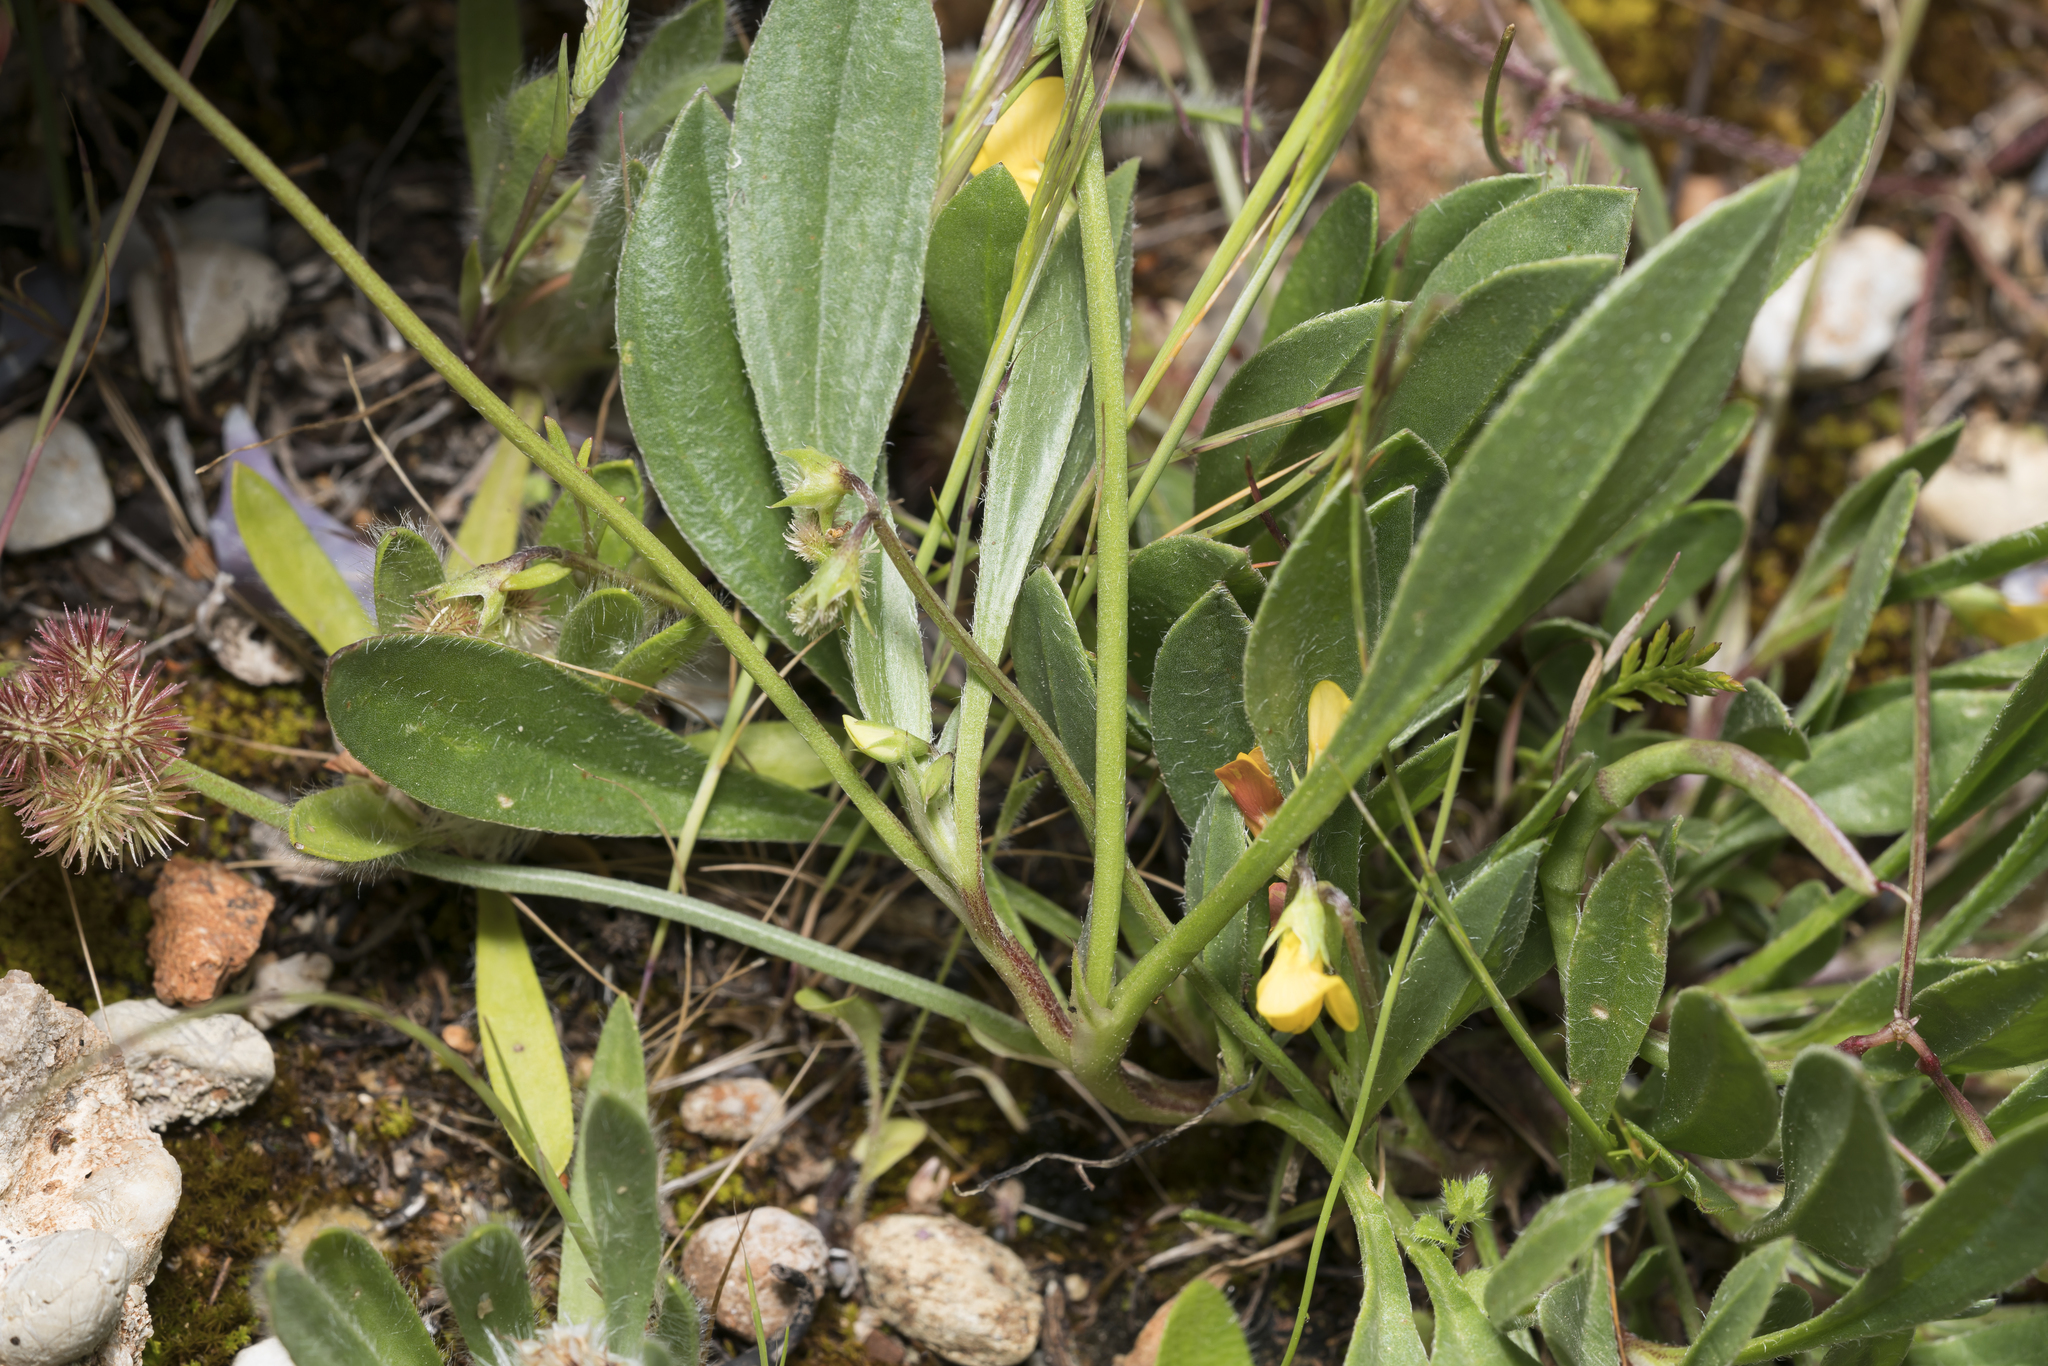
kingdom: Plantae
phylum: Tracheophyta
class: Magnoliopsida
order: Fabales
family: Fabaceae
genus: Scorpiurus
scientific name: Scorpiurus muricatus
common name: Caterpillar-plant
